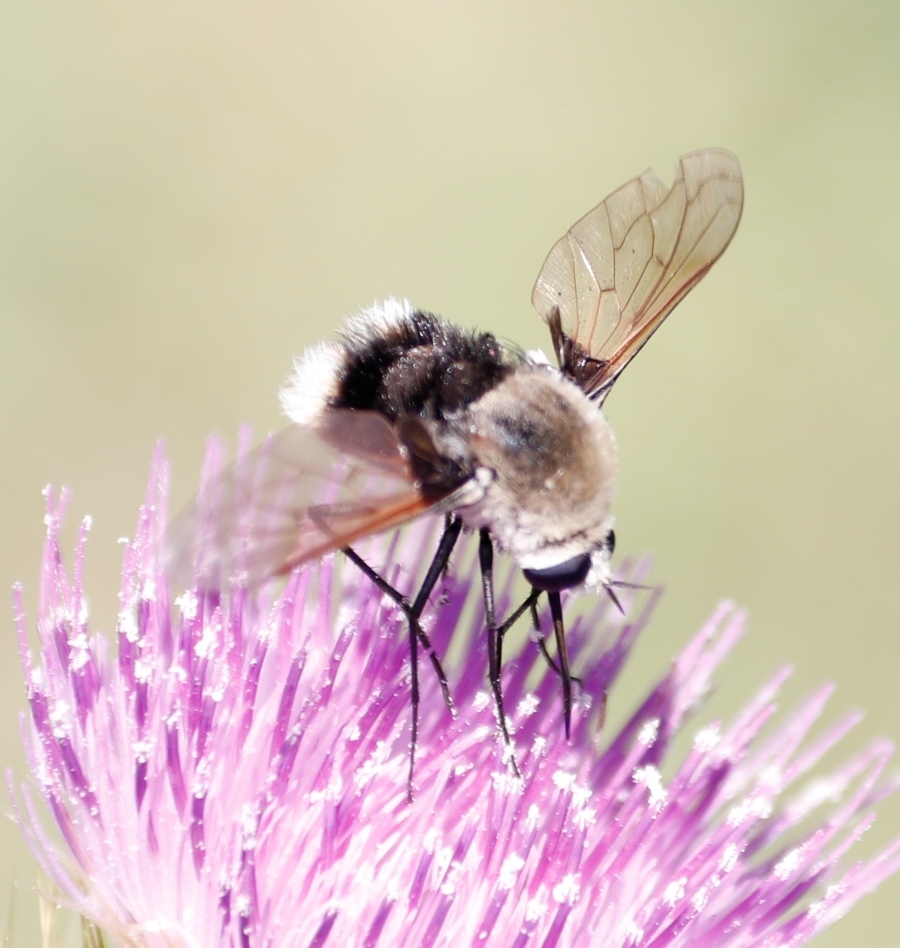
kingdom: Animalia
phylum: Arthropoda
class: Insecta
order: Diptera
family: Bombyliidae
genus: Bombomyia
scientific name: Bombomyia discoidea
